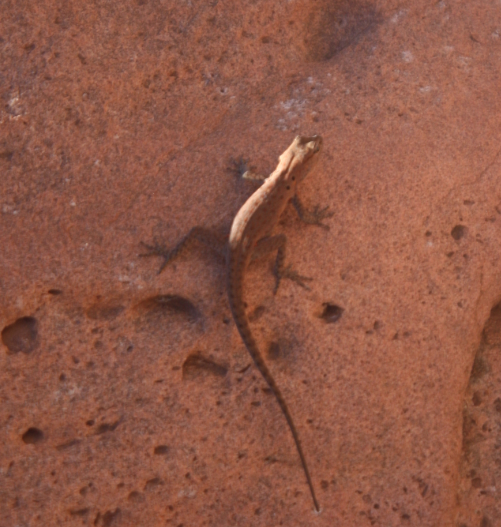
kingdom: Animalia
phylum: Chordata
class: Squamata
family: Sphaerodactylidae
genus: Quedenfeldtia
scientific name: Quedenfeldtia moerens
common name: Atlas day gecko
